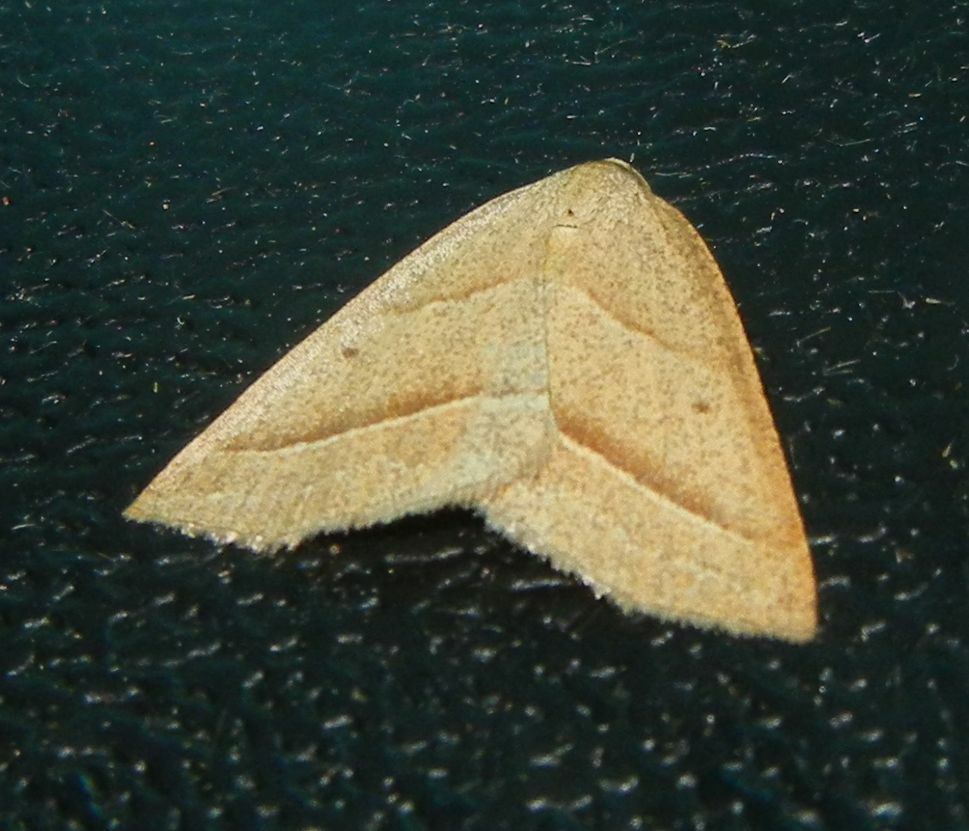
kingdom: Animalia
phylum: Arthropoda
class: Insecta
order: Lepidoptera
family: Pterophoridae
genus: Pterophorus
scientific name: Pterophorus Petrophora chlorosata
